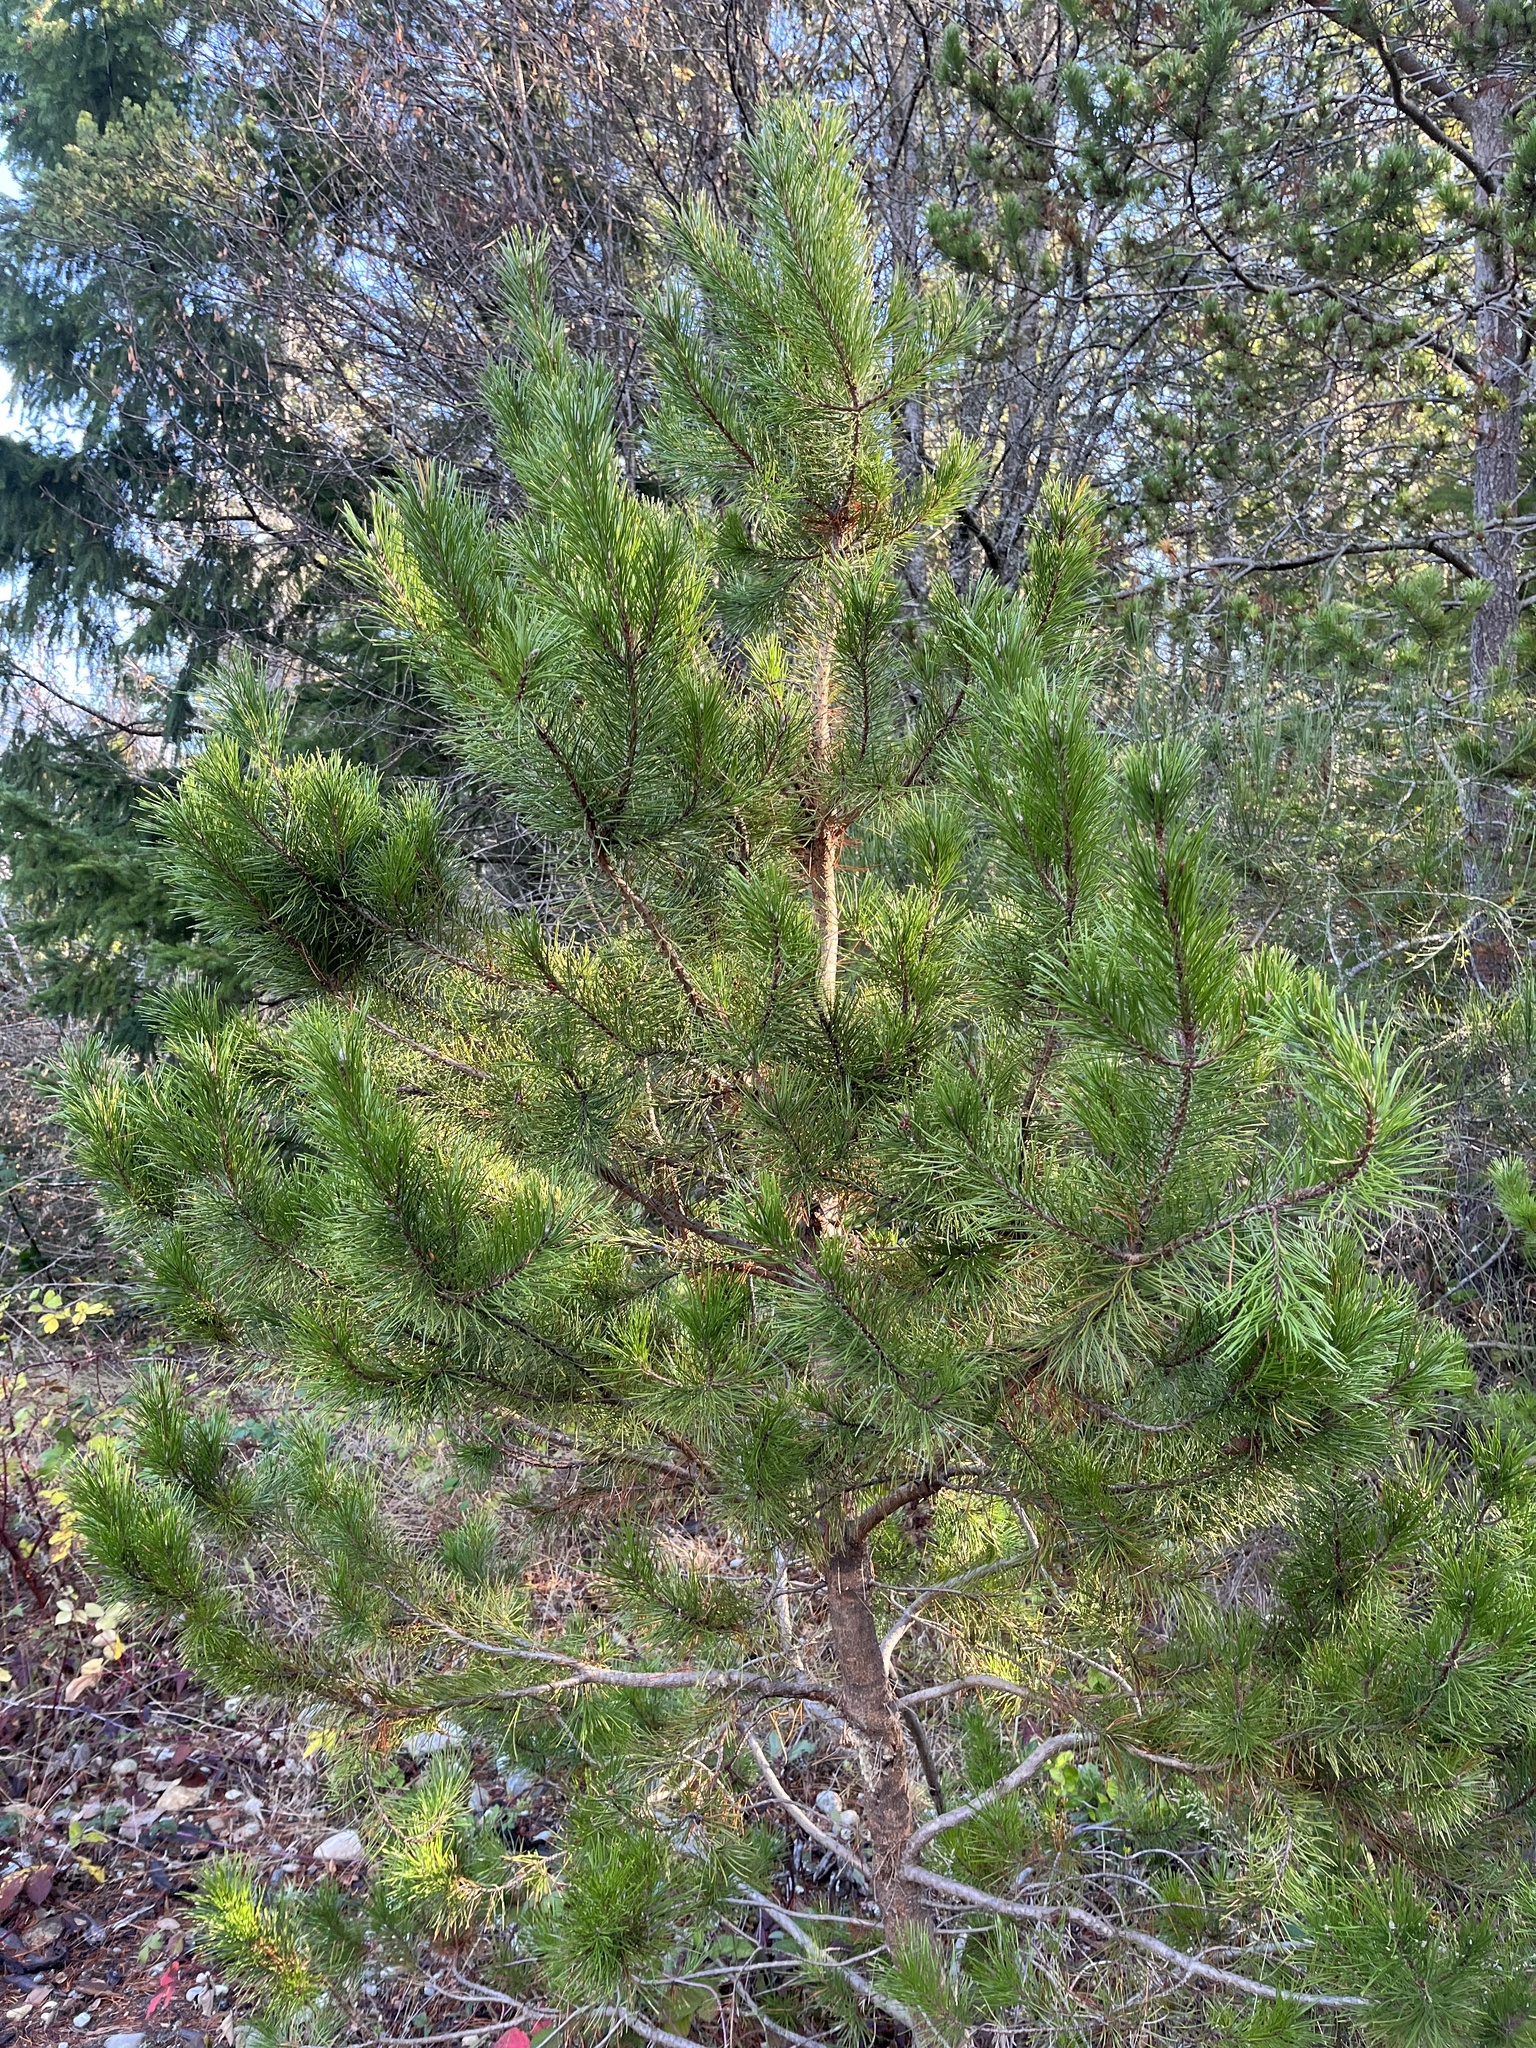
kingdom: Plantae
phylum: Tracheophyta
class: Pinopsida
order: Pinales
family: Pinaceae
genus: Pinus
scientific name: Pinus contorta
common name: Lodgepole pine
